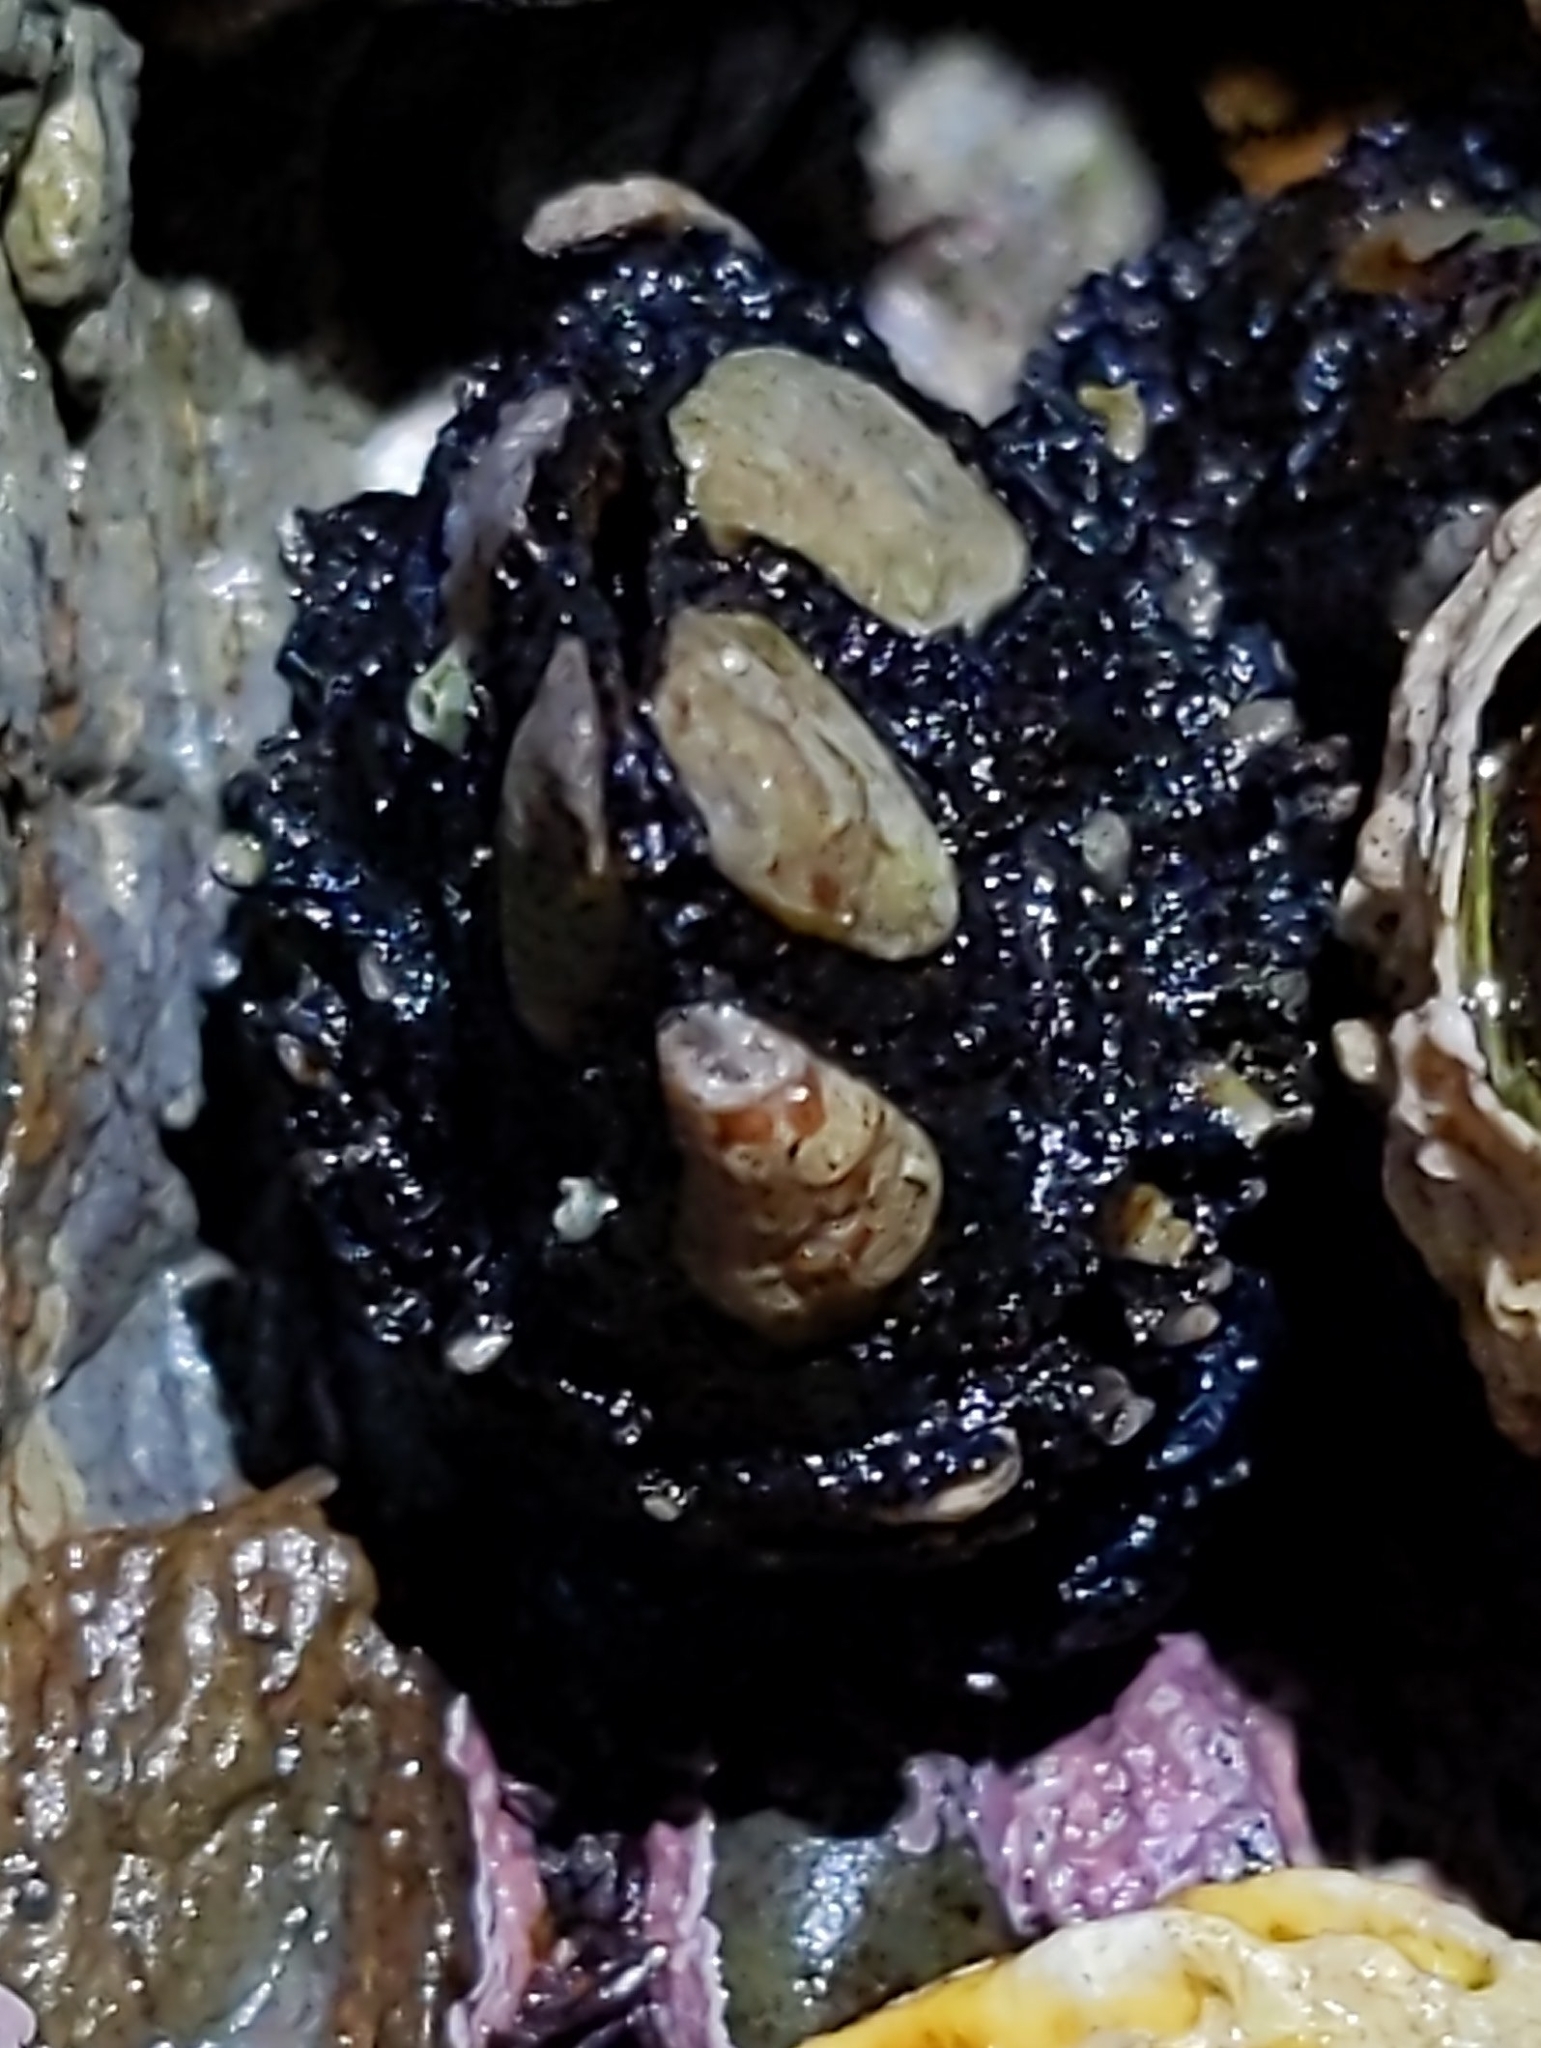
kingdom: Animalia
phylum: Arthropoda
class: Maxillopoda
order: Pedunculata
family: Calanticidae
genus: Calantica
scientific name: Calantica spinosa
